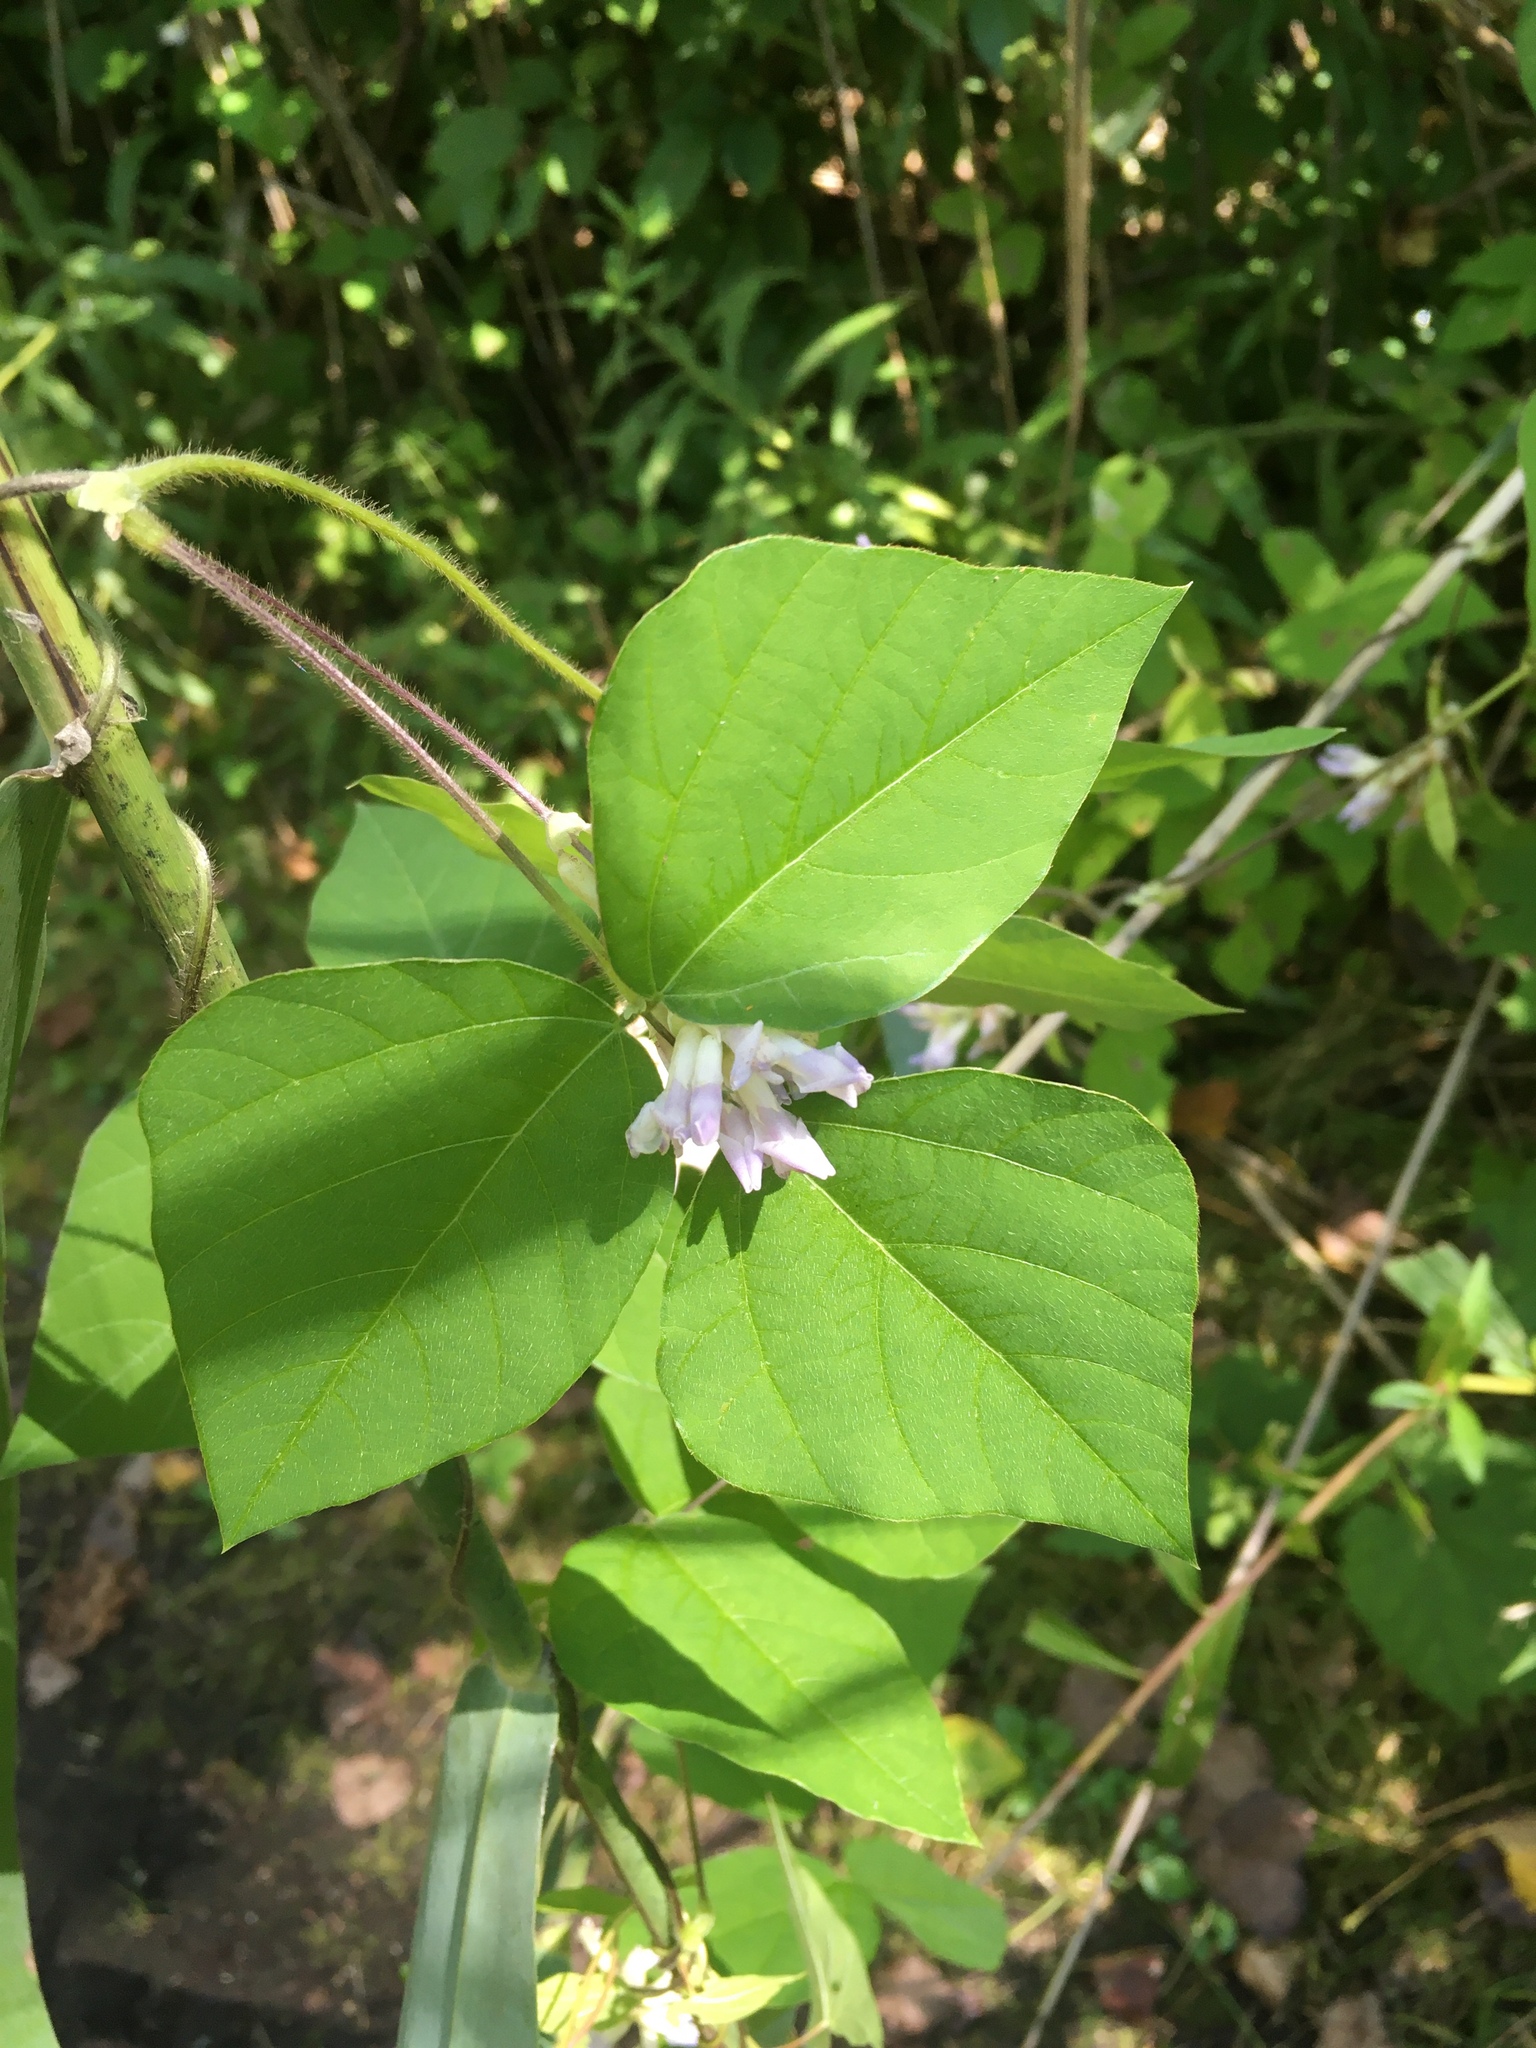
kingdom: Plantae
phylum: Tracheophyta
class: Magnoliopsida
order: Fabales
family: Fabaceae
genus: Amphicarpaea
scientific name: Amphicarpaea bracteata
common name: American hog peanut
